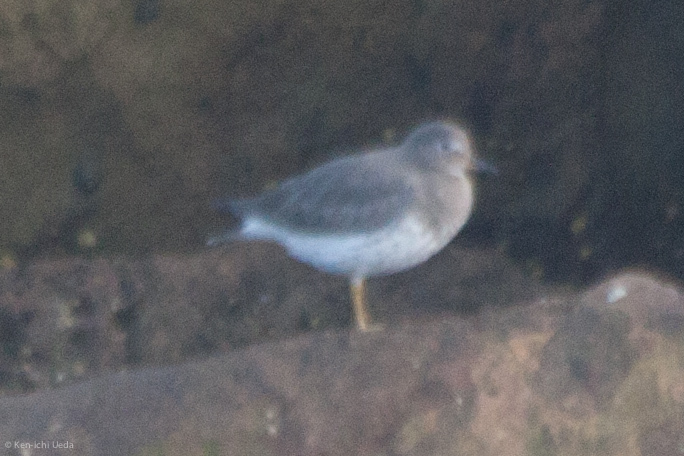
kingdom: Animalia
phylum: Chordata
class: Aves
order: Charadriiformes
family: Scolopacidae
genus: Calidris
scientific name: Calidris virgata
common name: Surfbird
